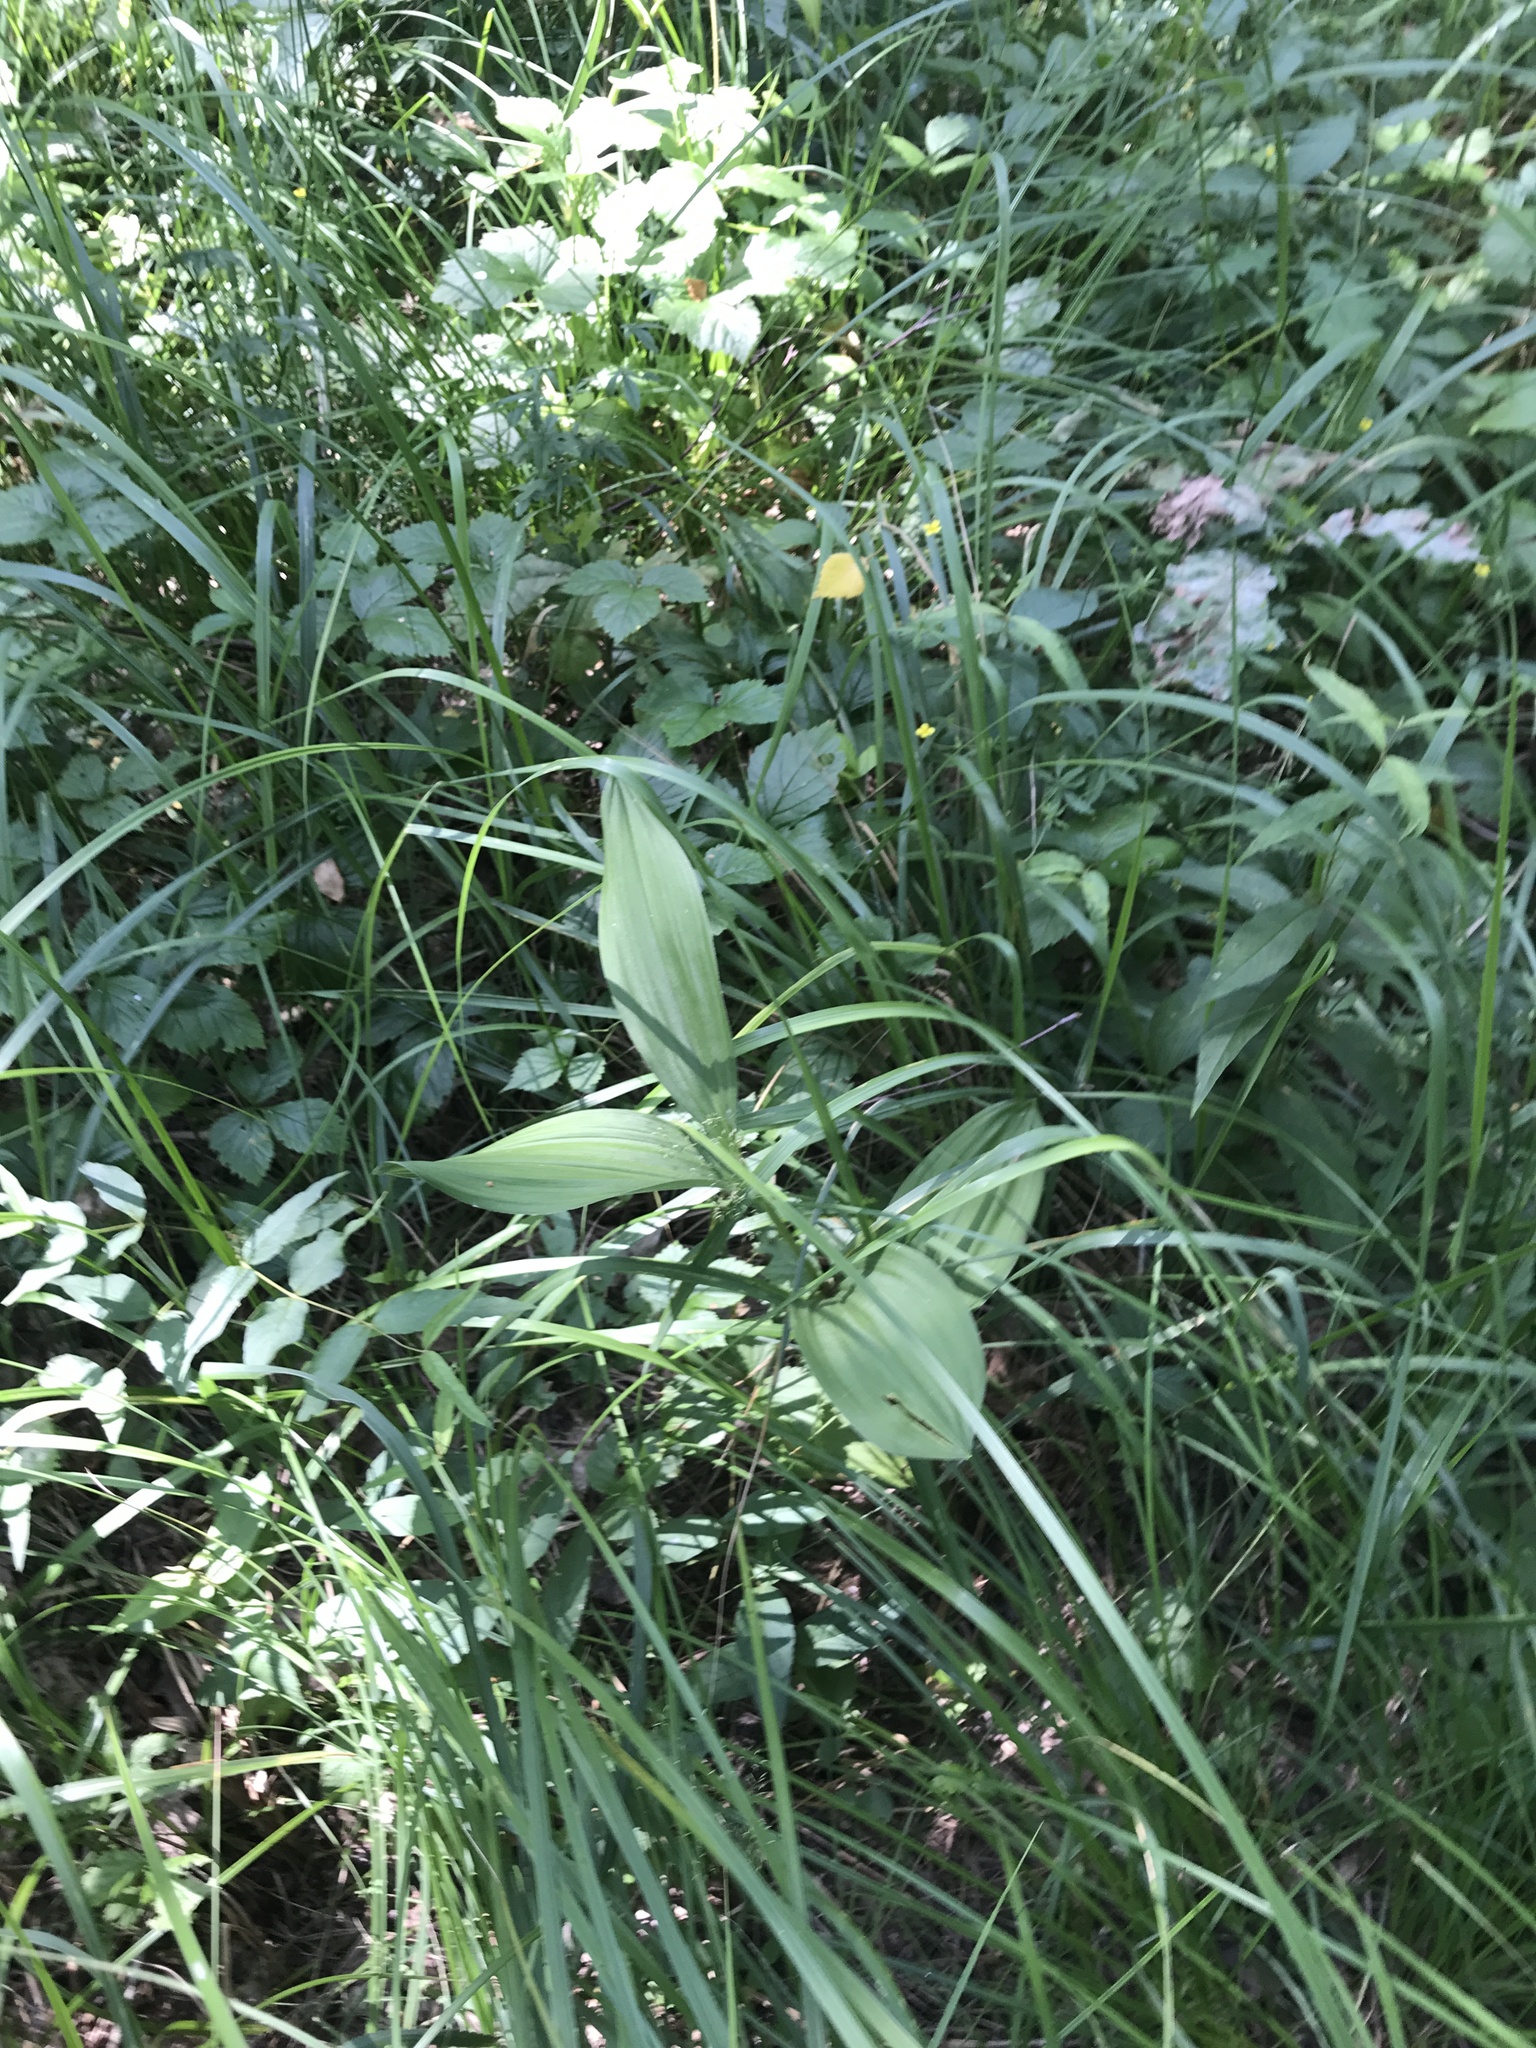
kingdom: Plantae
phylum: Tracheophyta
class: Liliopsida
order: Liliales
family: Melanthiaceae
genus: Veratrum
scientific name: Veratrum lobelianum
